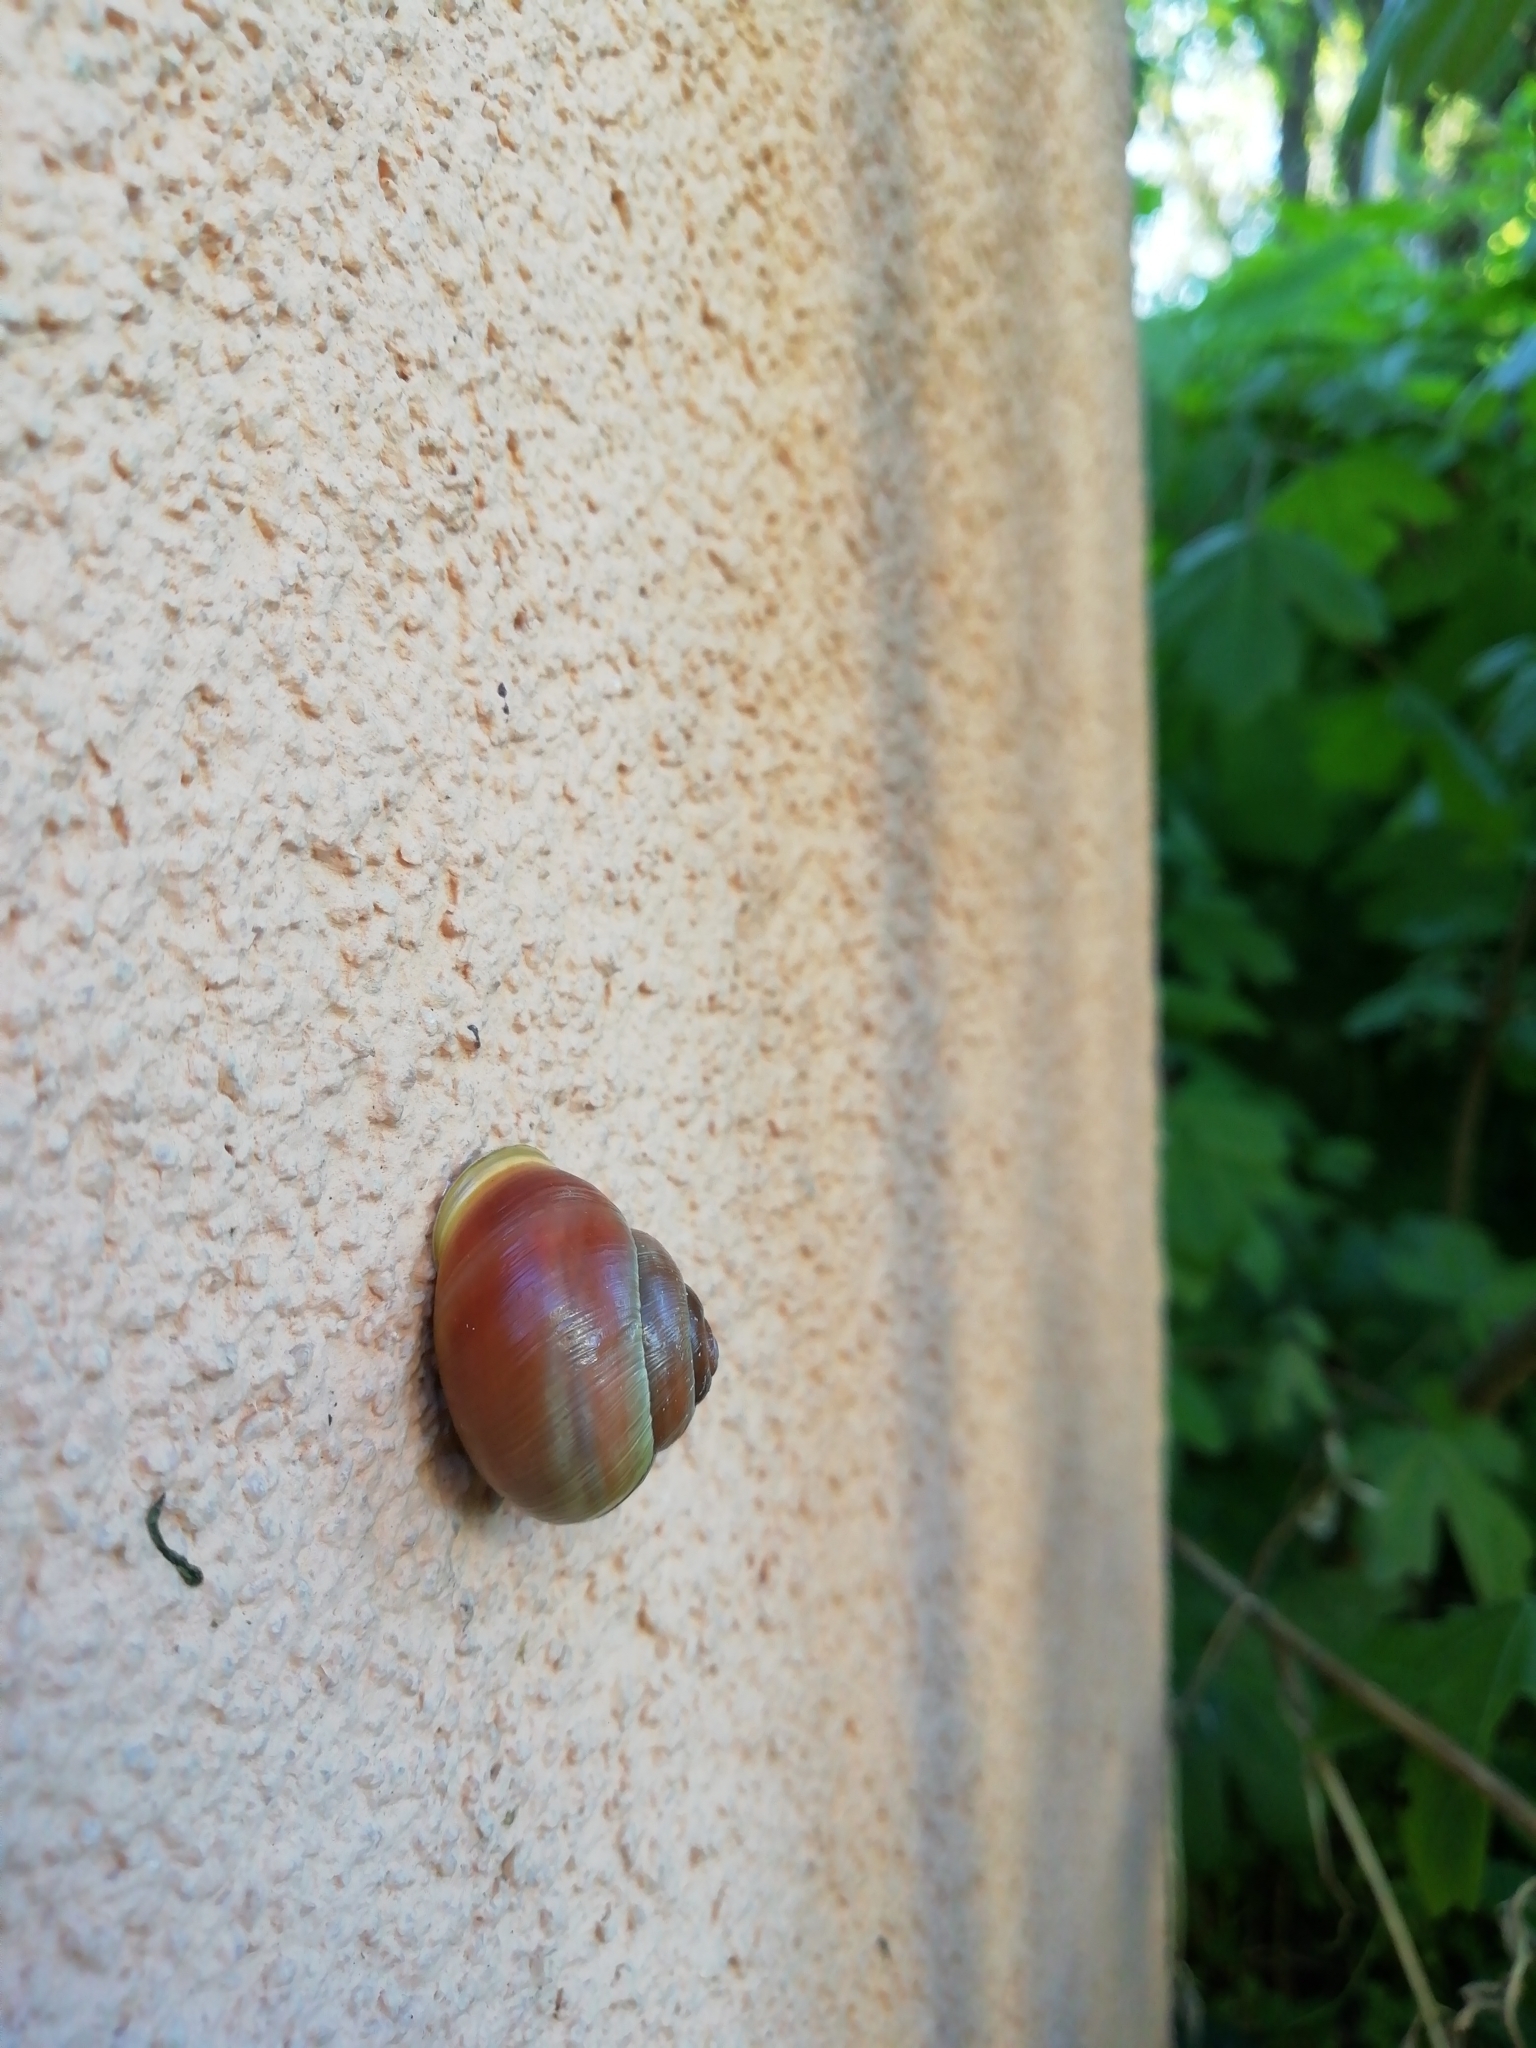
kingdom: Animalia
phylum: Mollusca
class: Gastropoda
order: Stylommatophora
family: Helicidae
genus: Cepaea
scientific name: Cepaea hortensis
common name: White-lip gardensnail
